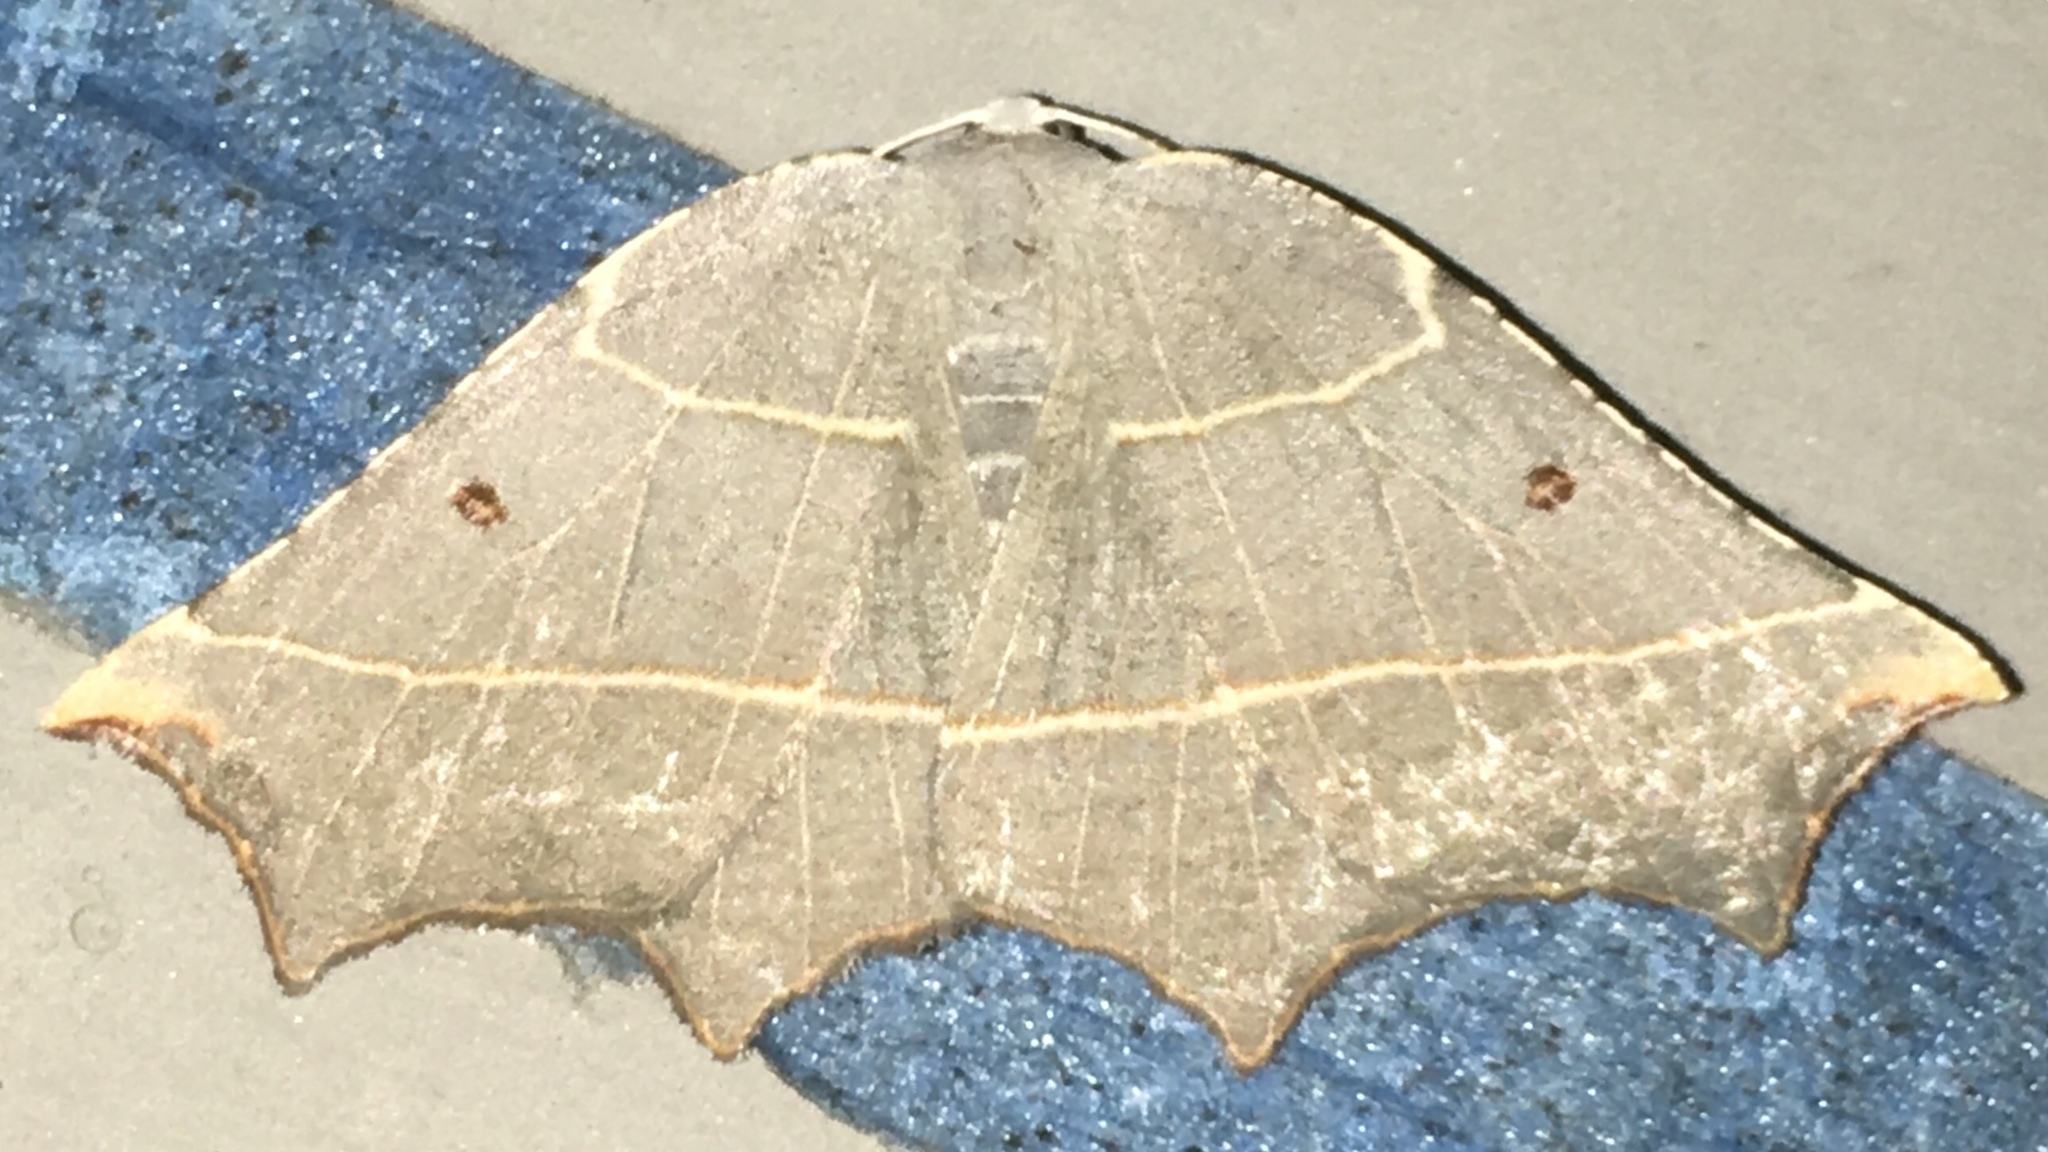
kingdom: Animalia
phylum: Arthropoda
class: Insecta
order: Lepidoptera
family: Geometridae
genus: Metanema
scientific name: Metanema inatomaria
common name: Pale metanema
